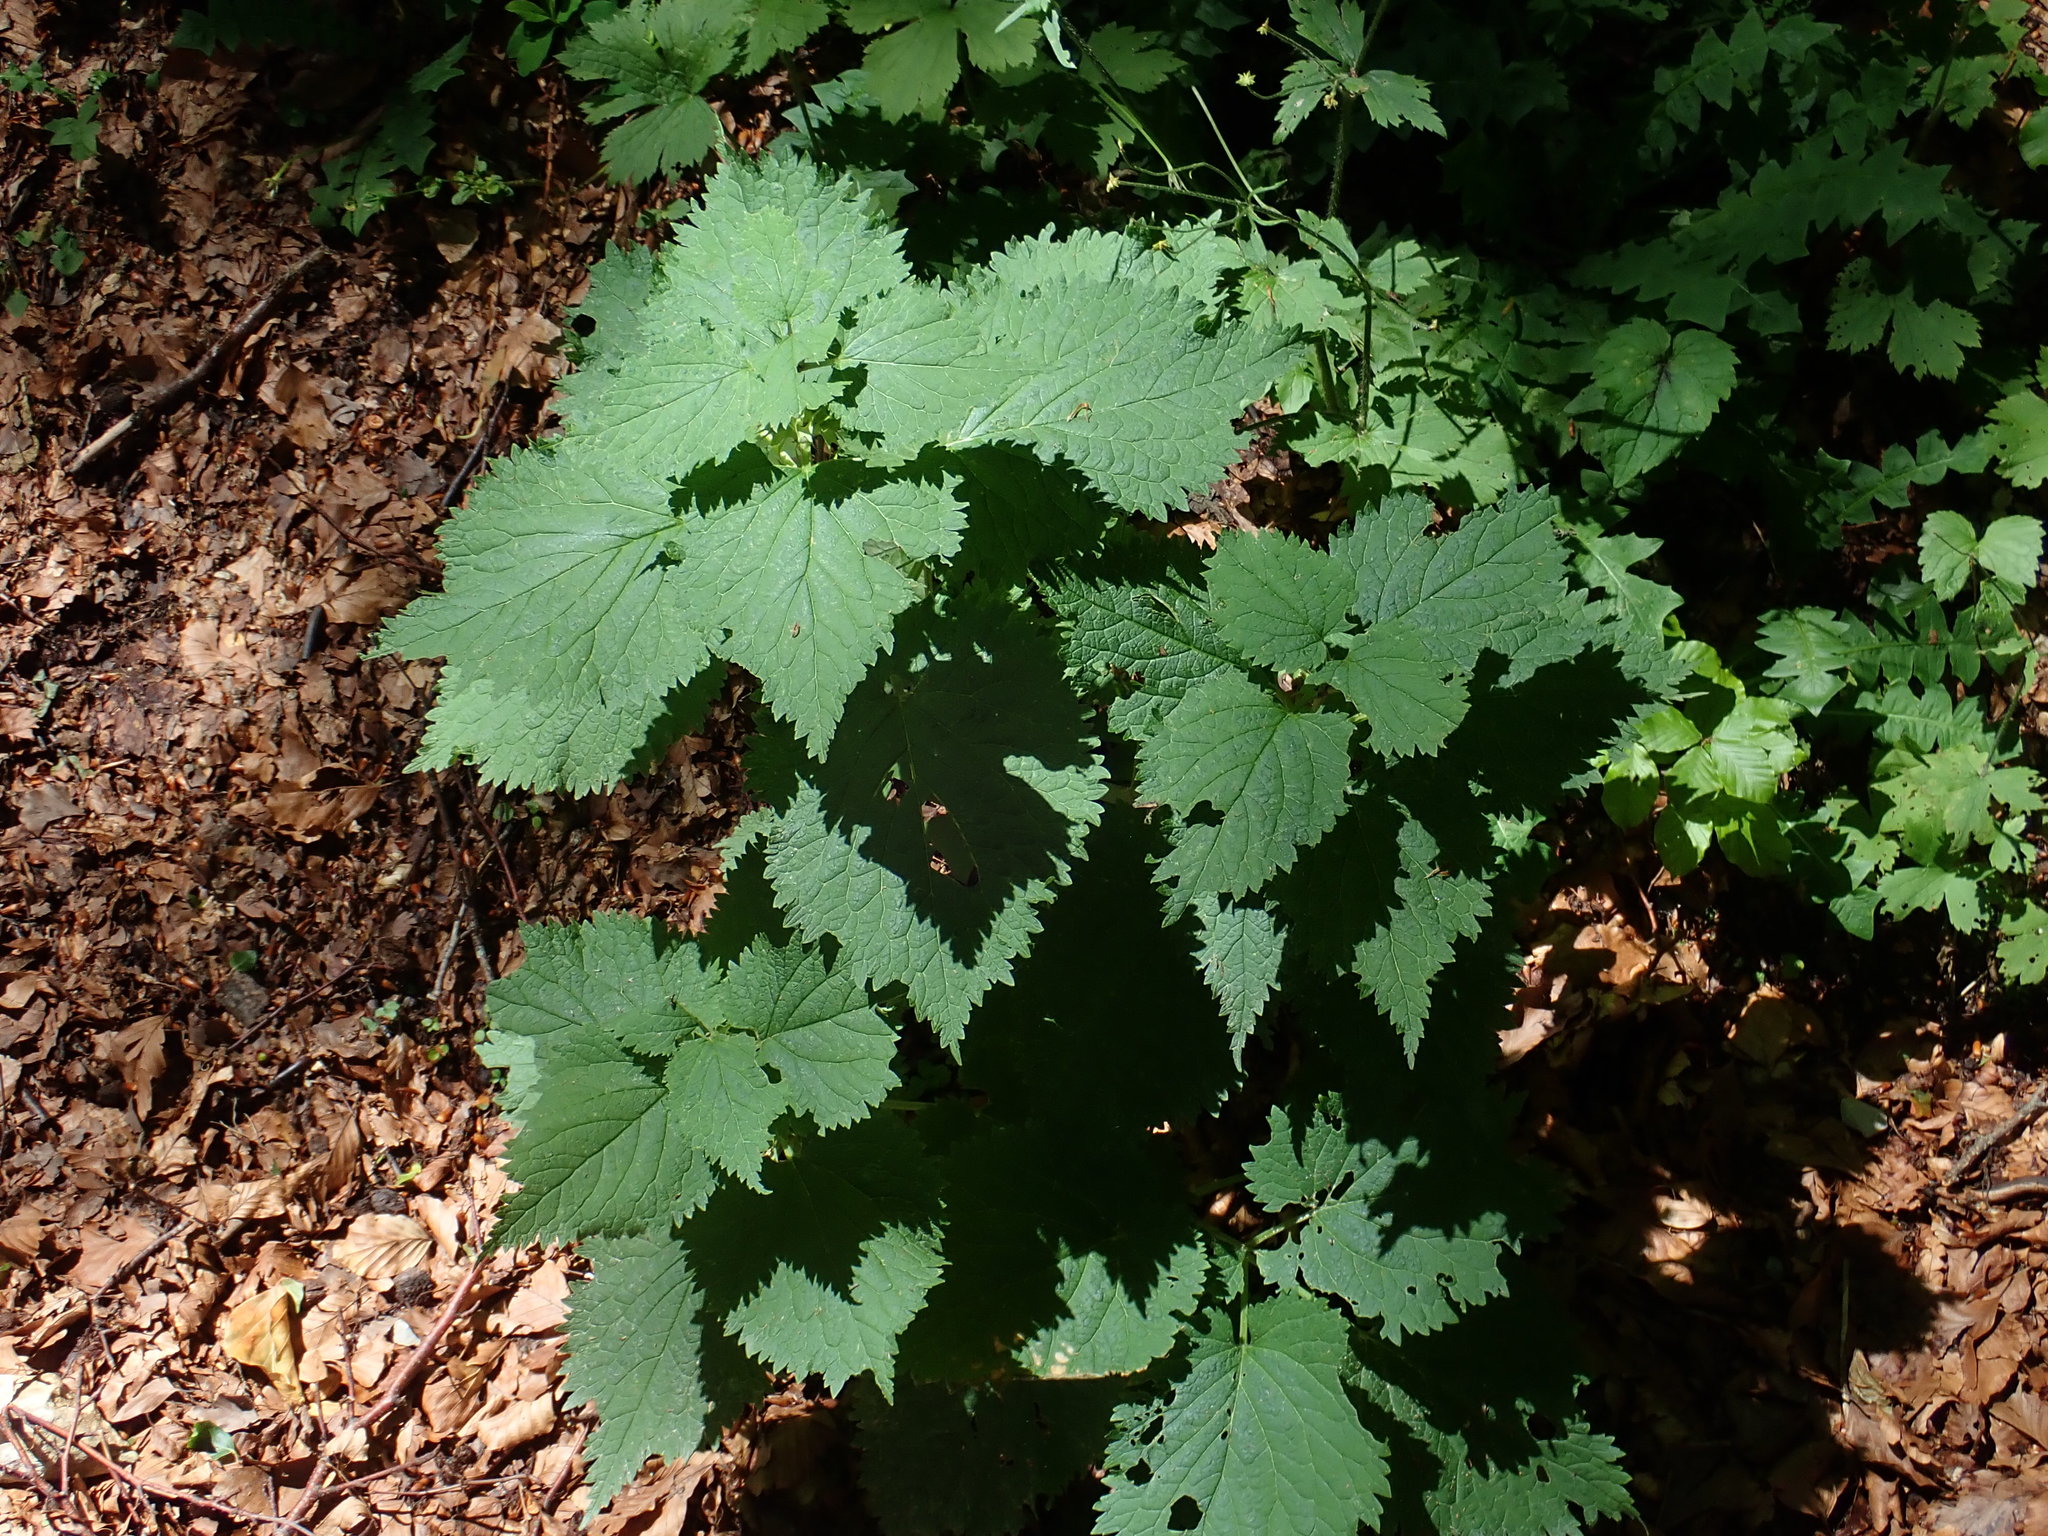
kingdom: Plantae
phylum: Tracheophyta
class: Magnoliopsida
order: Lamiales
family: Lamiaceae
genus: Lamium
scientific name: Lamium orvala
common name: Balm-leaved archangel
